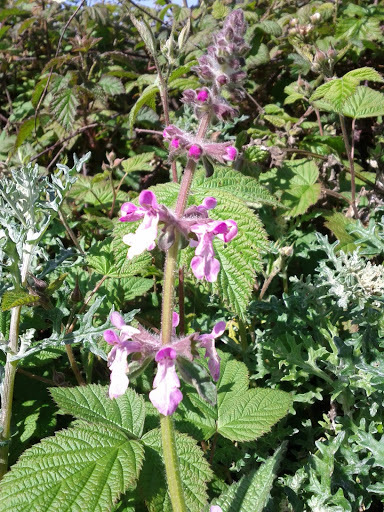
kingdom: Plantae
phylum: Tracheophyta
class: Magnoliopsida
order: Lamiales
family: Lamiaceae
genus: Stachys
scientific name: Stachys bullata
